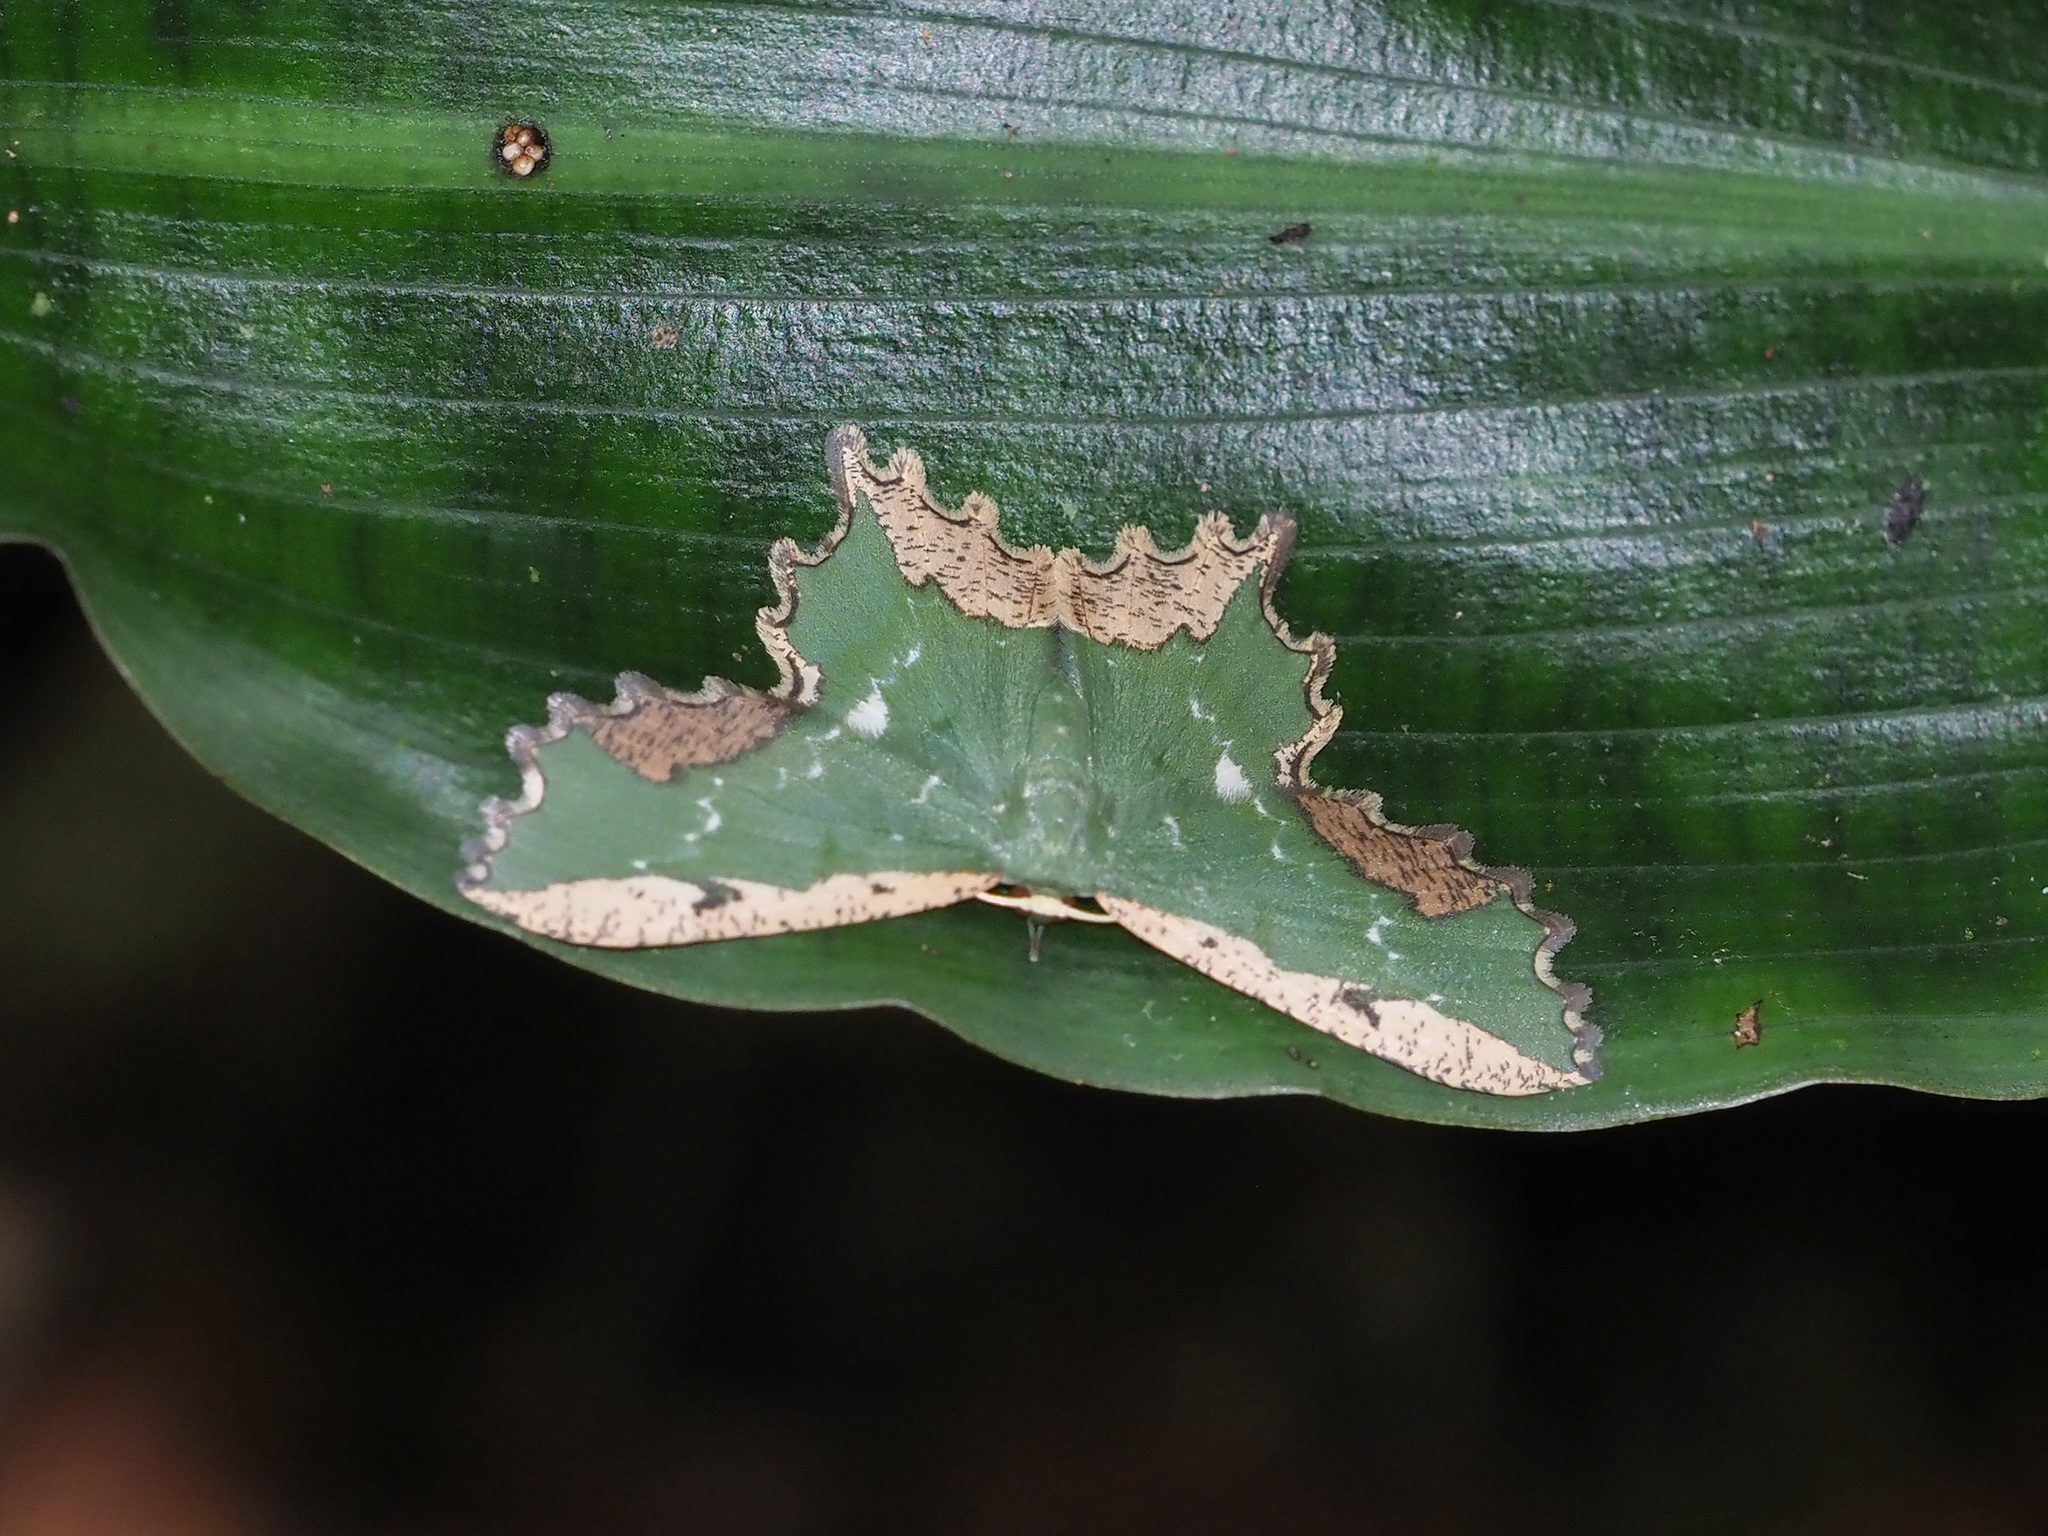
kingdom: Animalia
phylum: Arthropoda
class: Insecta
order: Lepidoptera
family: Geometridae
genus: Maxates
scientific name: Maxates coelataria
